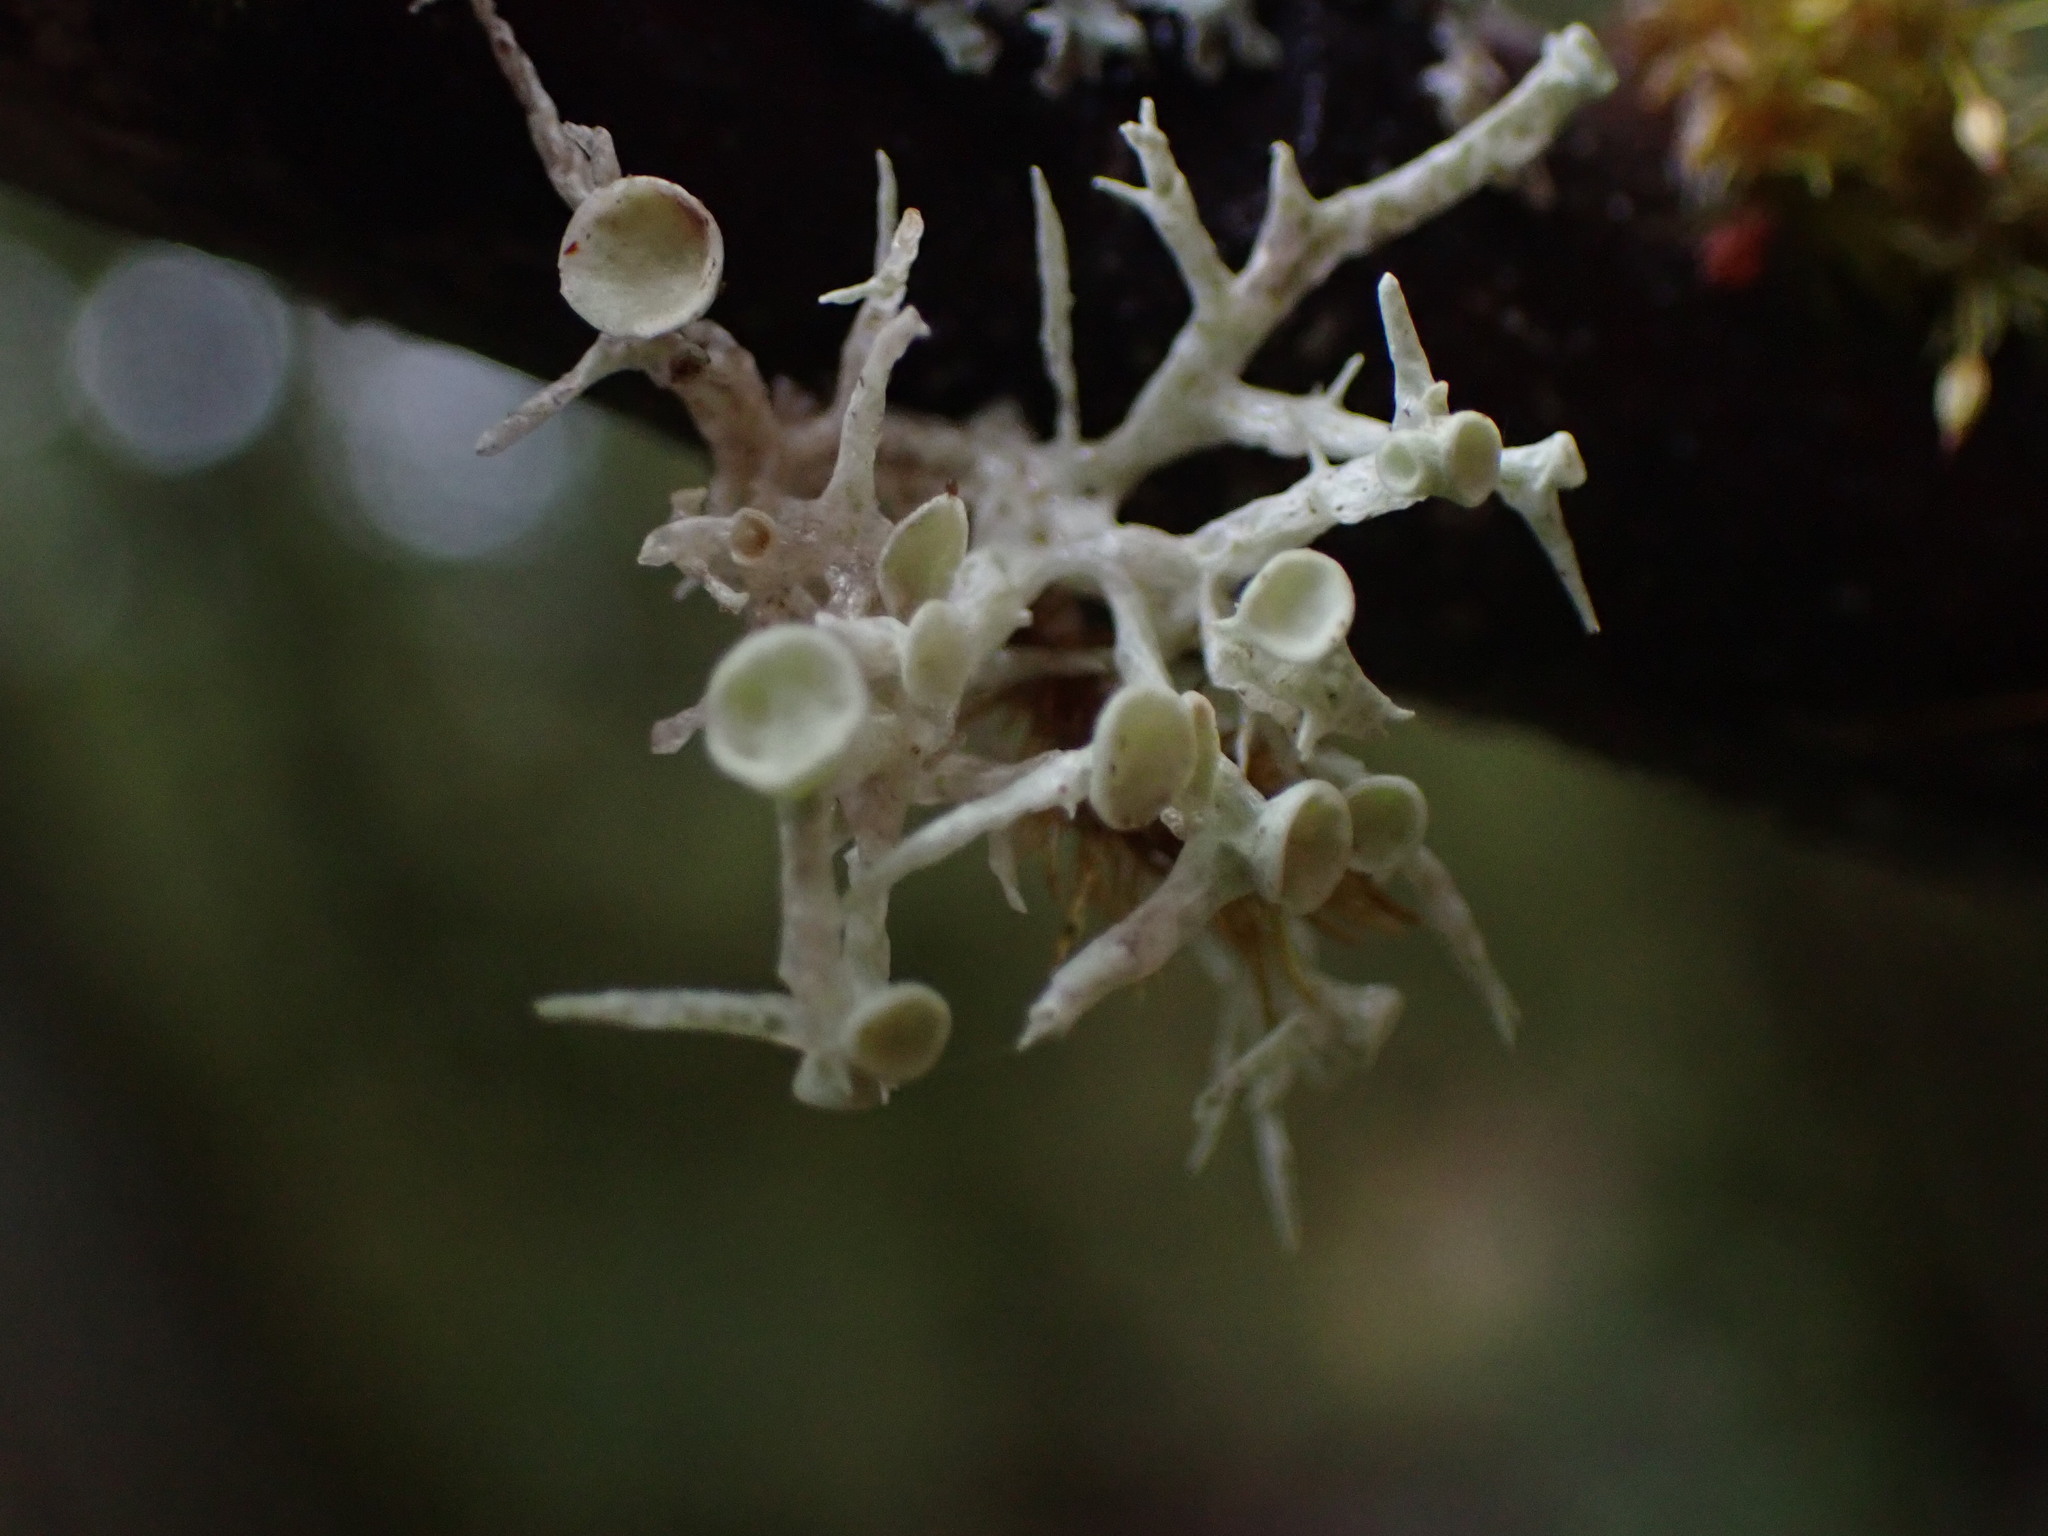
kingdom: Fungi
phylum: Ascomycota
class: Lecanoromycetes
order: Lecanorales
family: Ramalinaceae
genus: Ramalina
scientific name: Ramalina dilacerata
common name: Punctured bushy lichen
